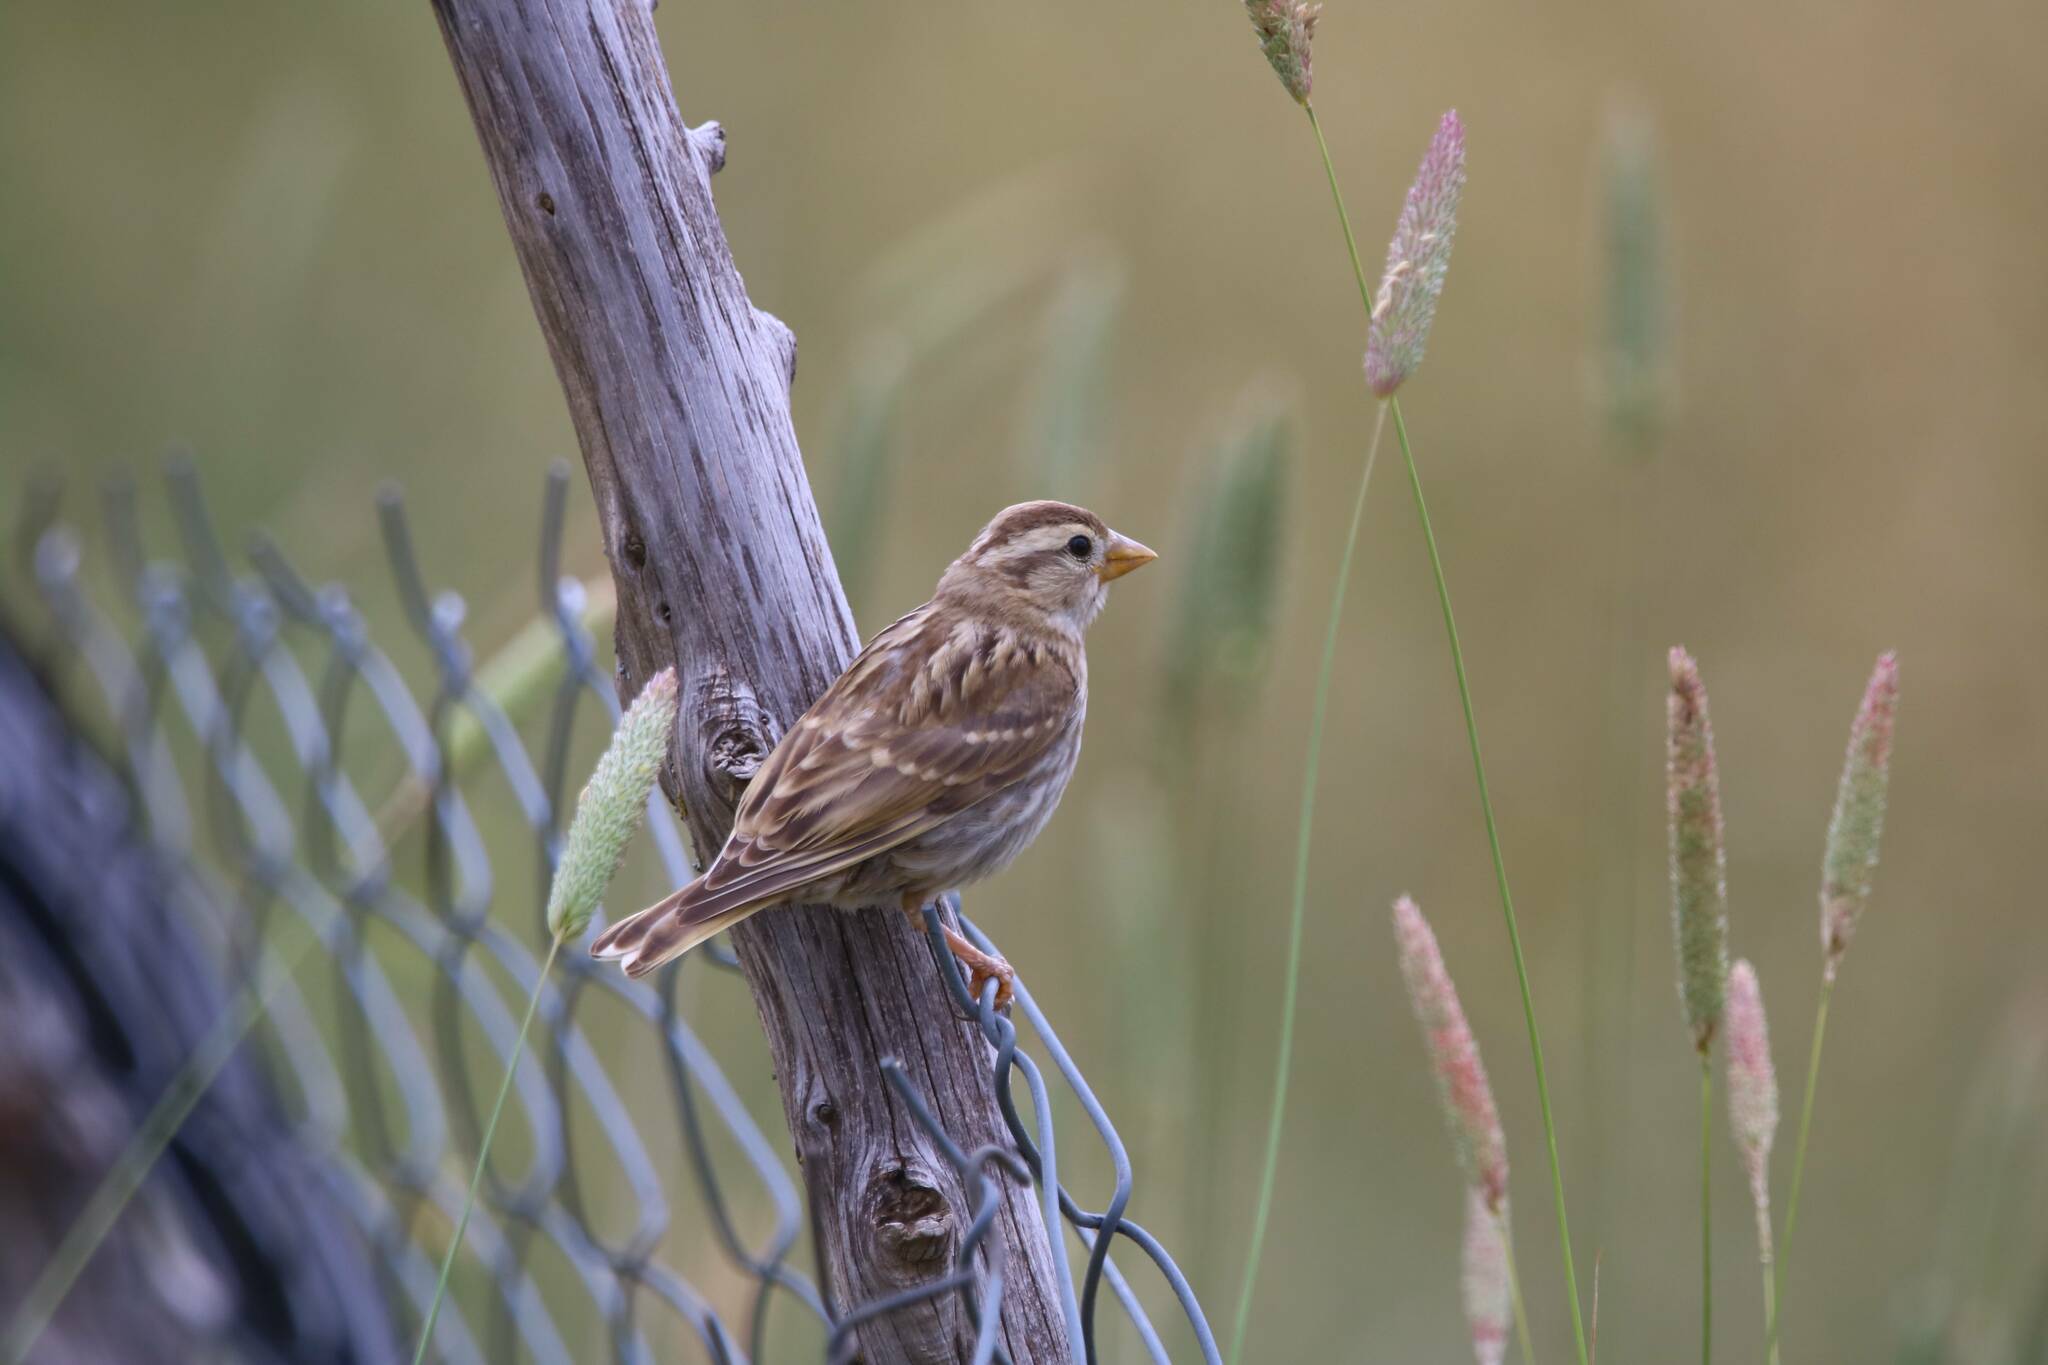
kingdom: Animalia
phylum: Chordata
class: Aves
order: Passeriformes
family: Passeridae
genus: Petronia
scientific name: Petronia petronia
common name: Rock sparrow
